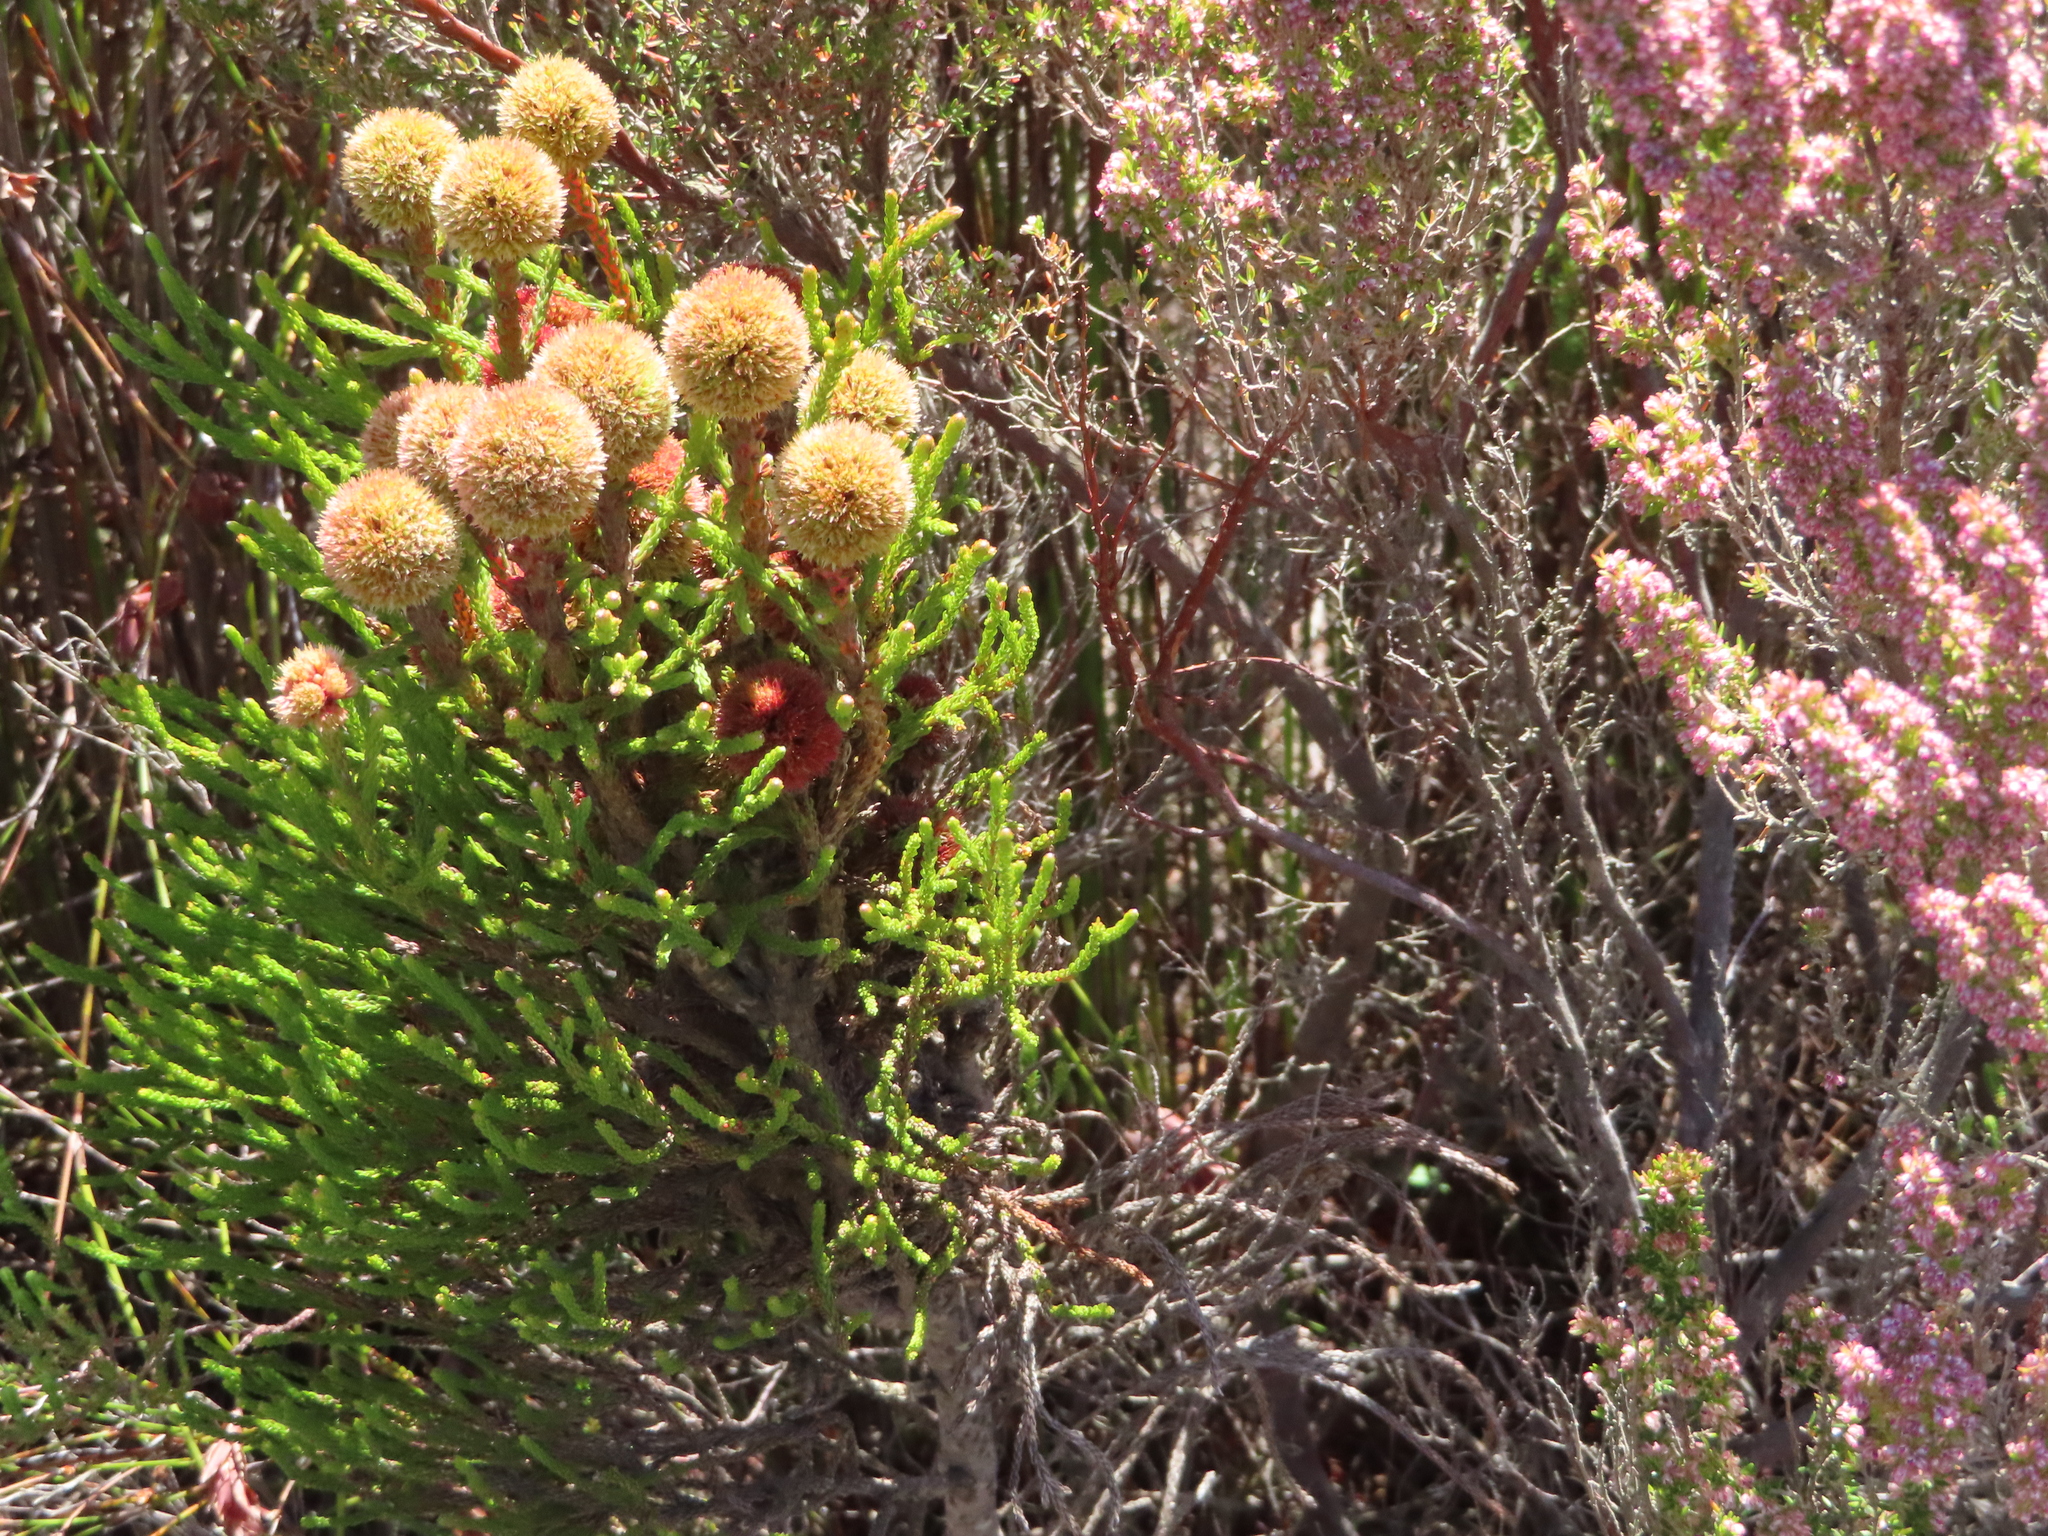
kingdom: Plantae
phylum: Tracheophyta
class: Magnoliopsida
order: Bruniales
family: Bruniaceae
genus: Brunia
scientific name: Brunia fragarioides
